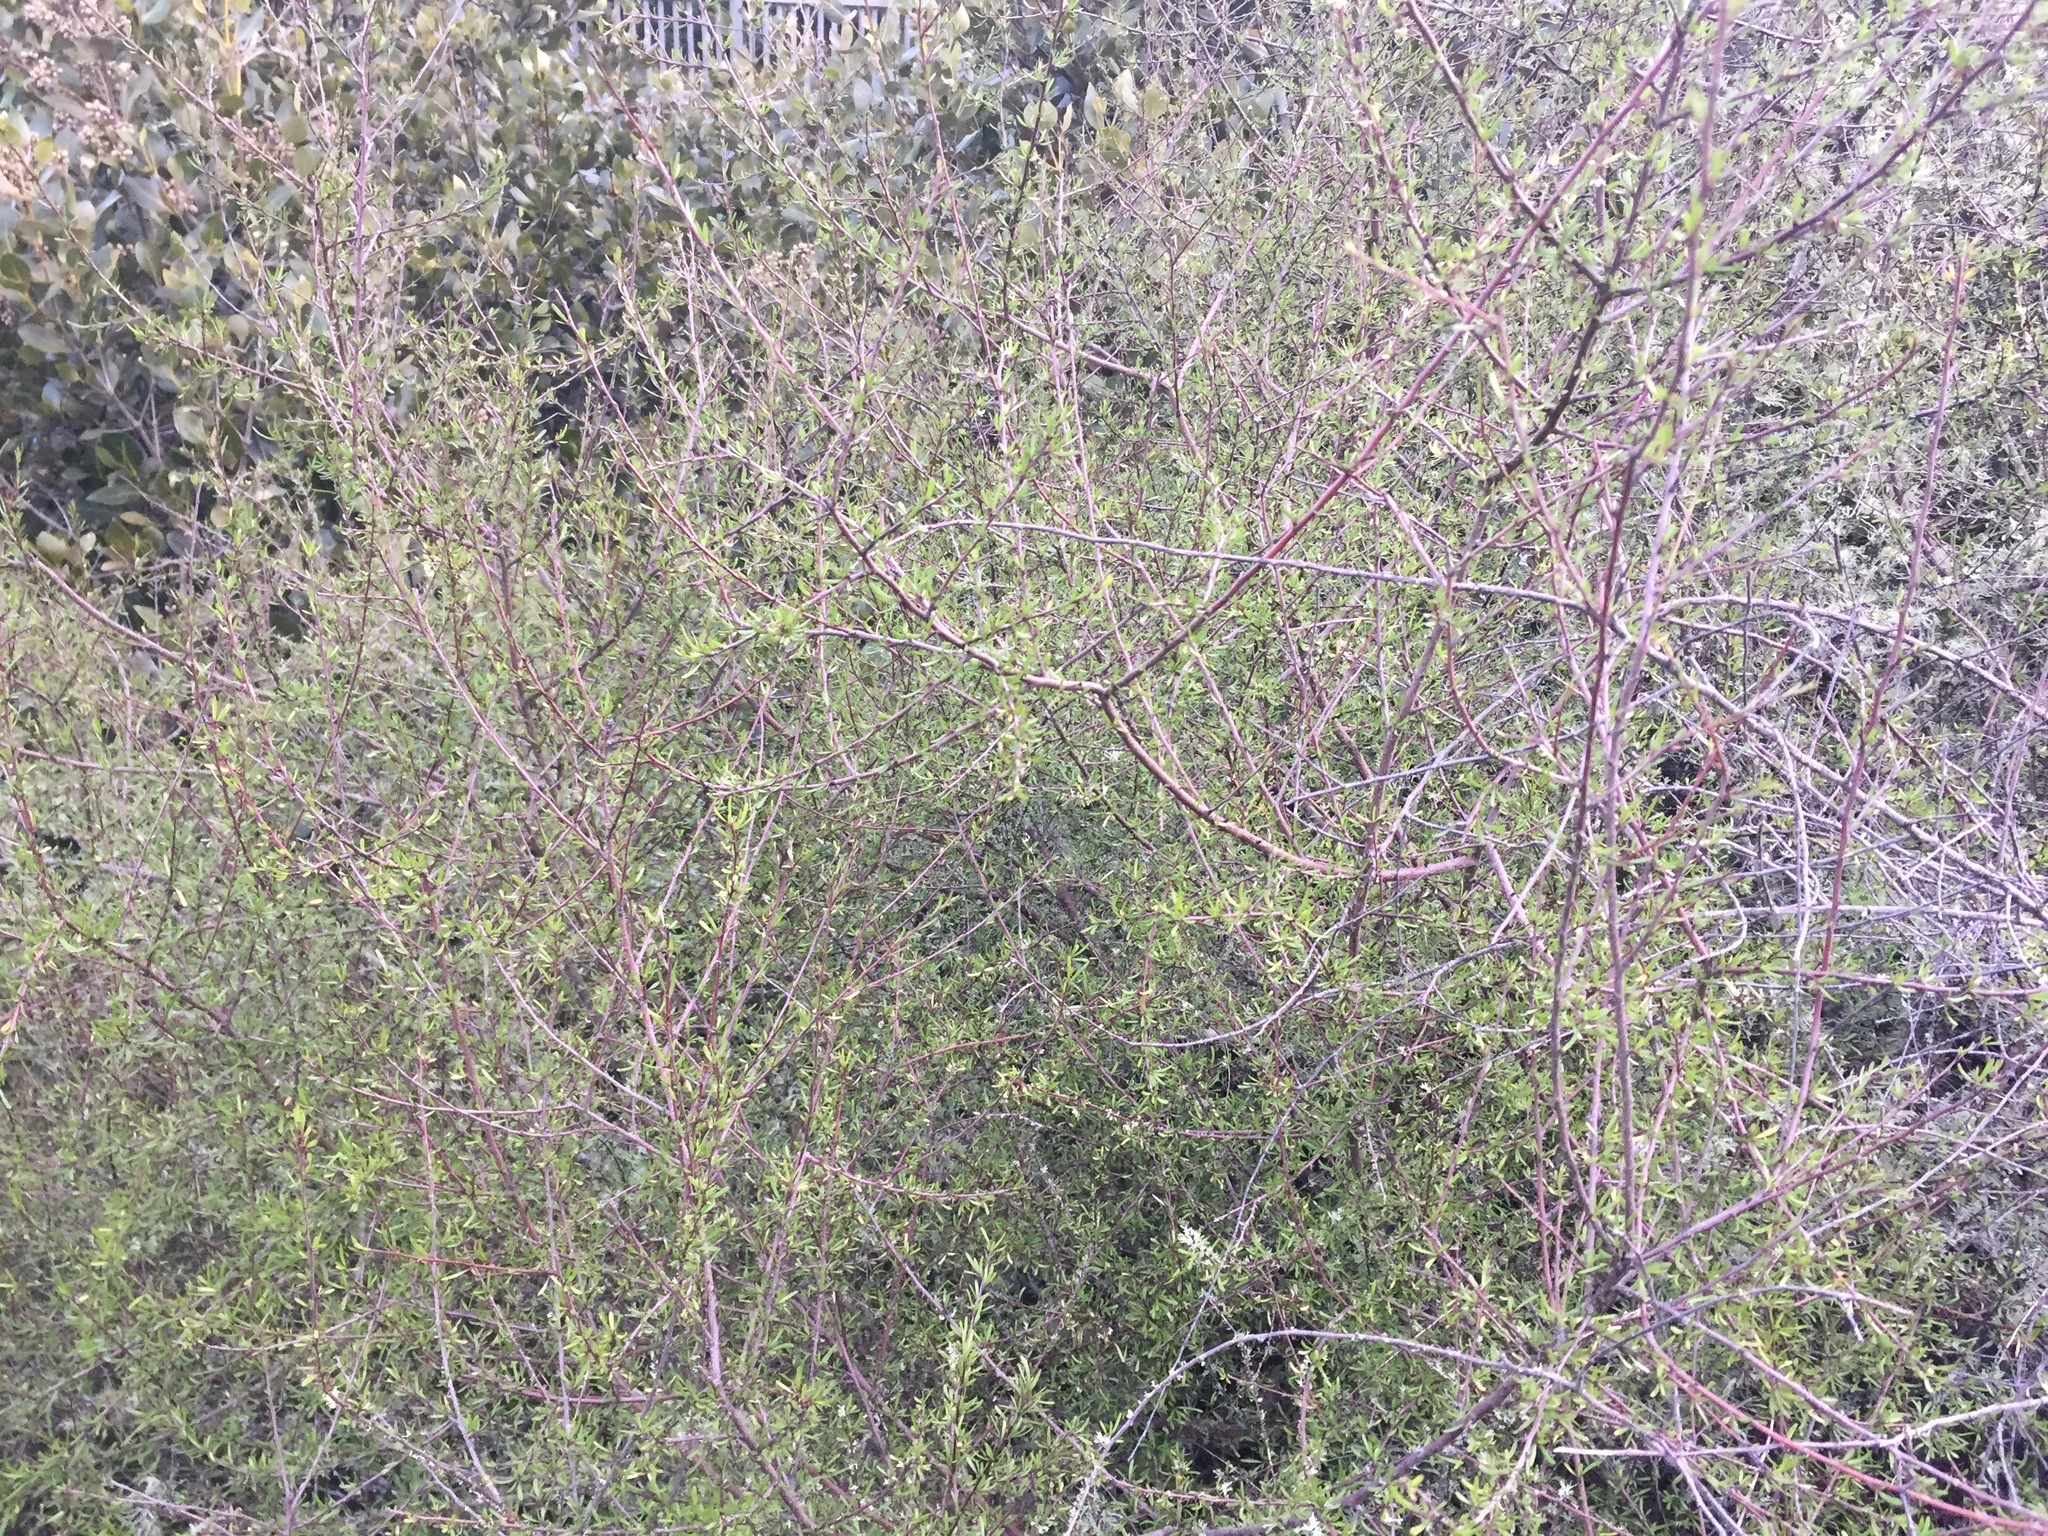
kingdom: Plantae
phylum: Tracheophyta
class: Magnoliopsida
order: Malvales
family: Malvaceae
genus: Plagianthus
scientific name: Plagianthus divaricatus
